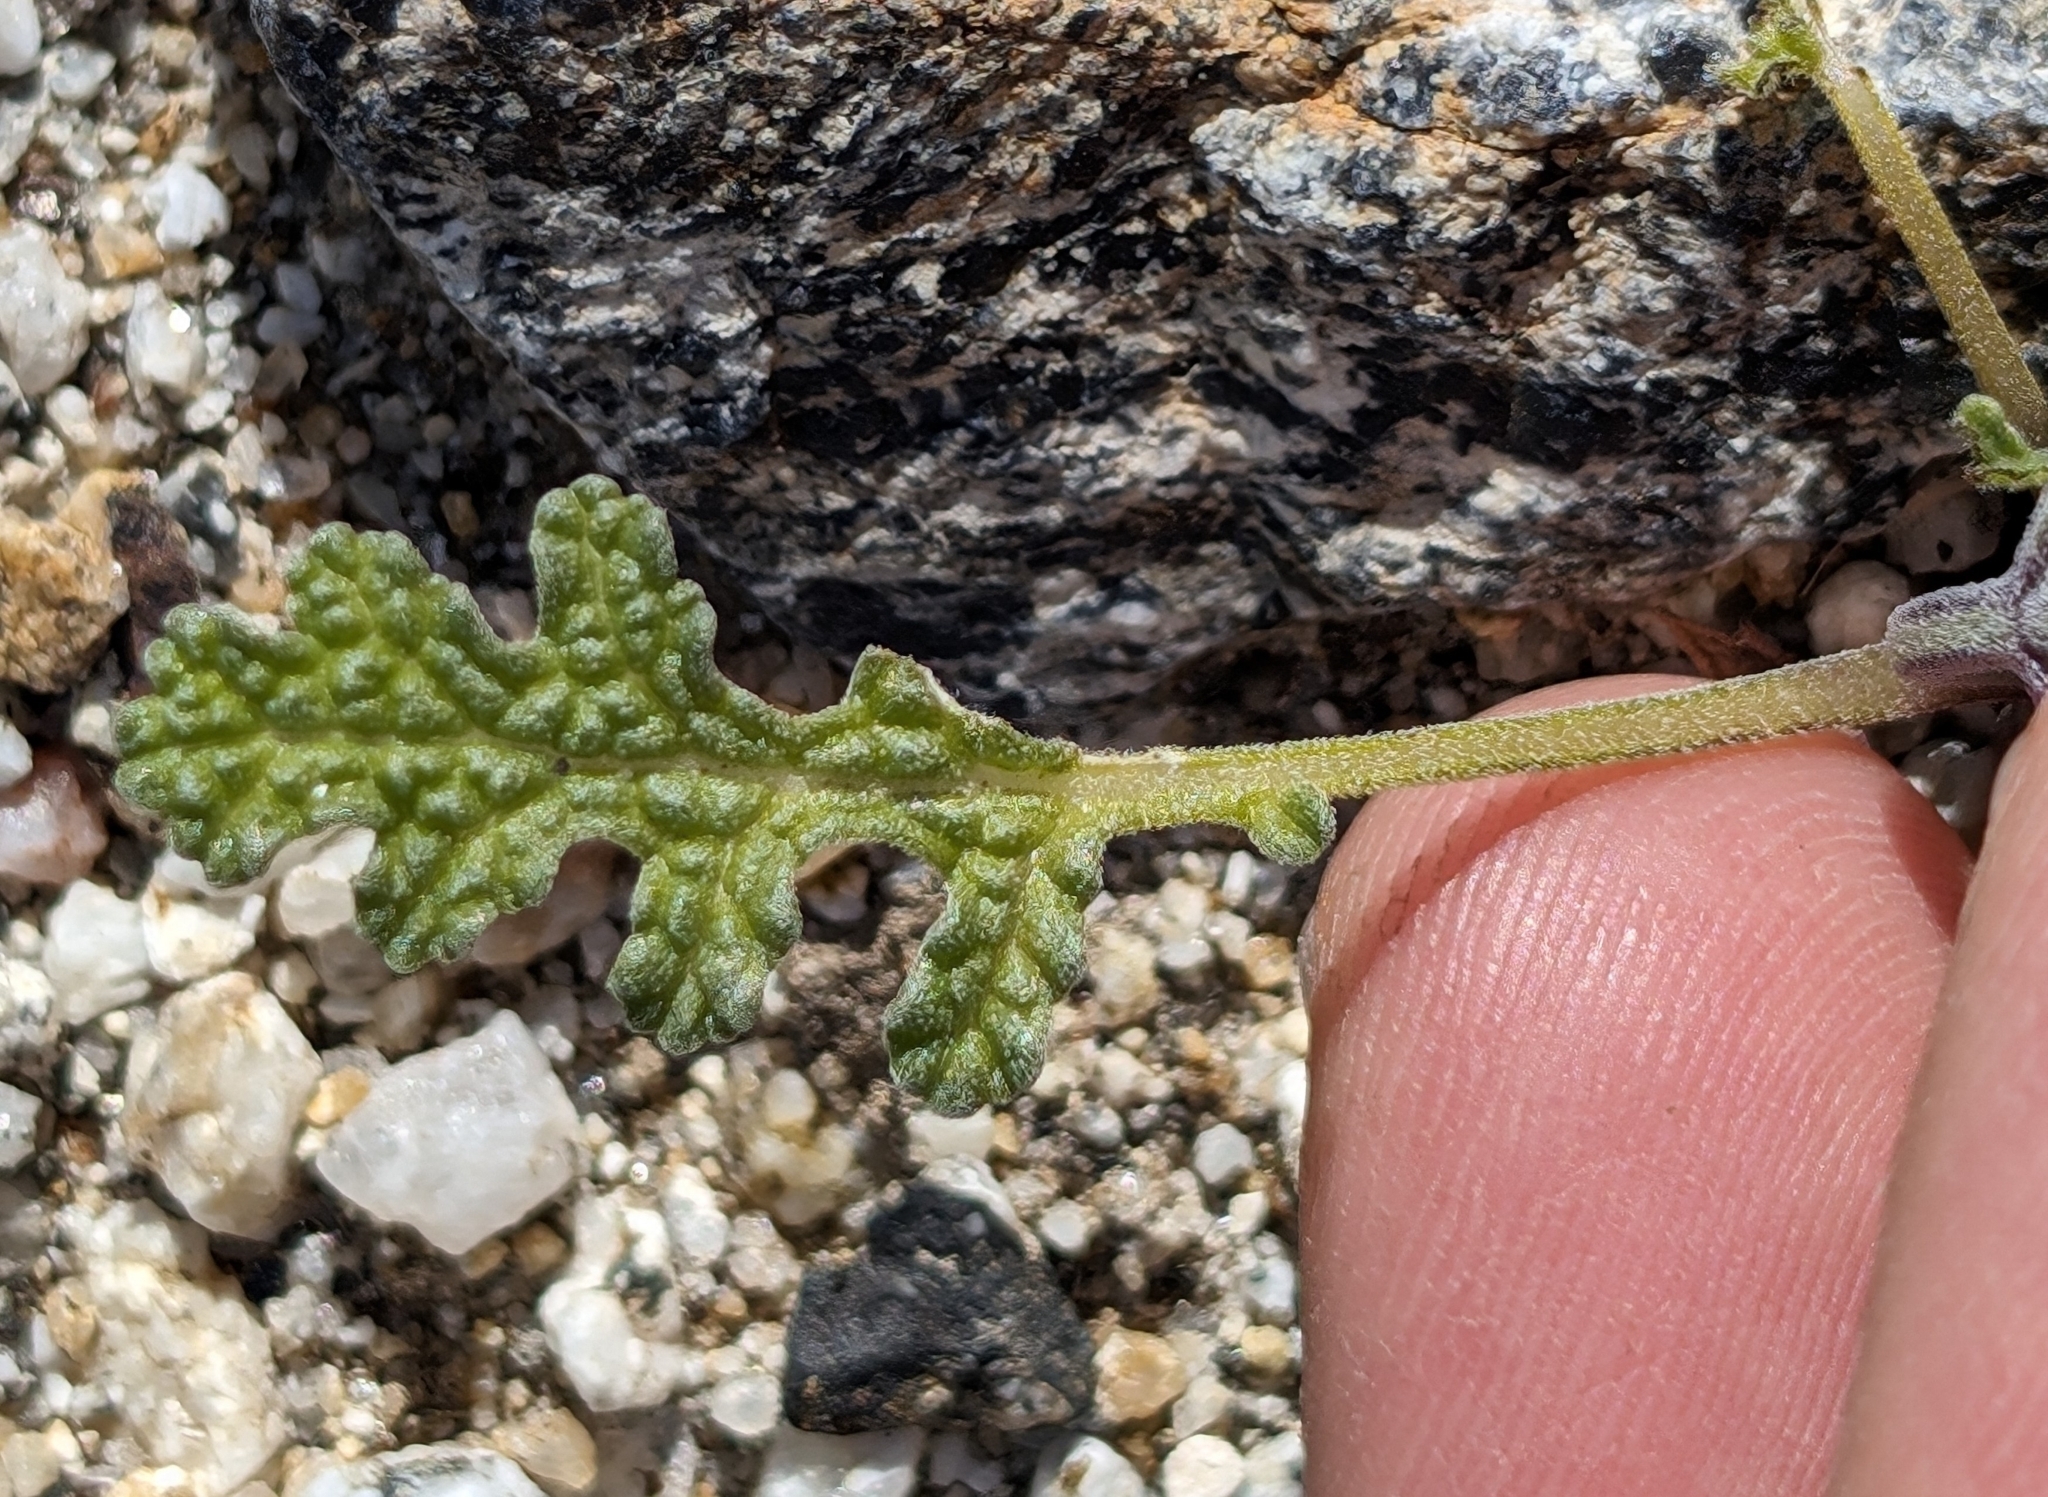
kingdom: Plantae
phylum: Tracheophyta
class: Magnoliopsida
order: Lamiales
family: Lamiaceae
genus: Salvia
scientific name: Salvia columbariae
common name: Chia
